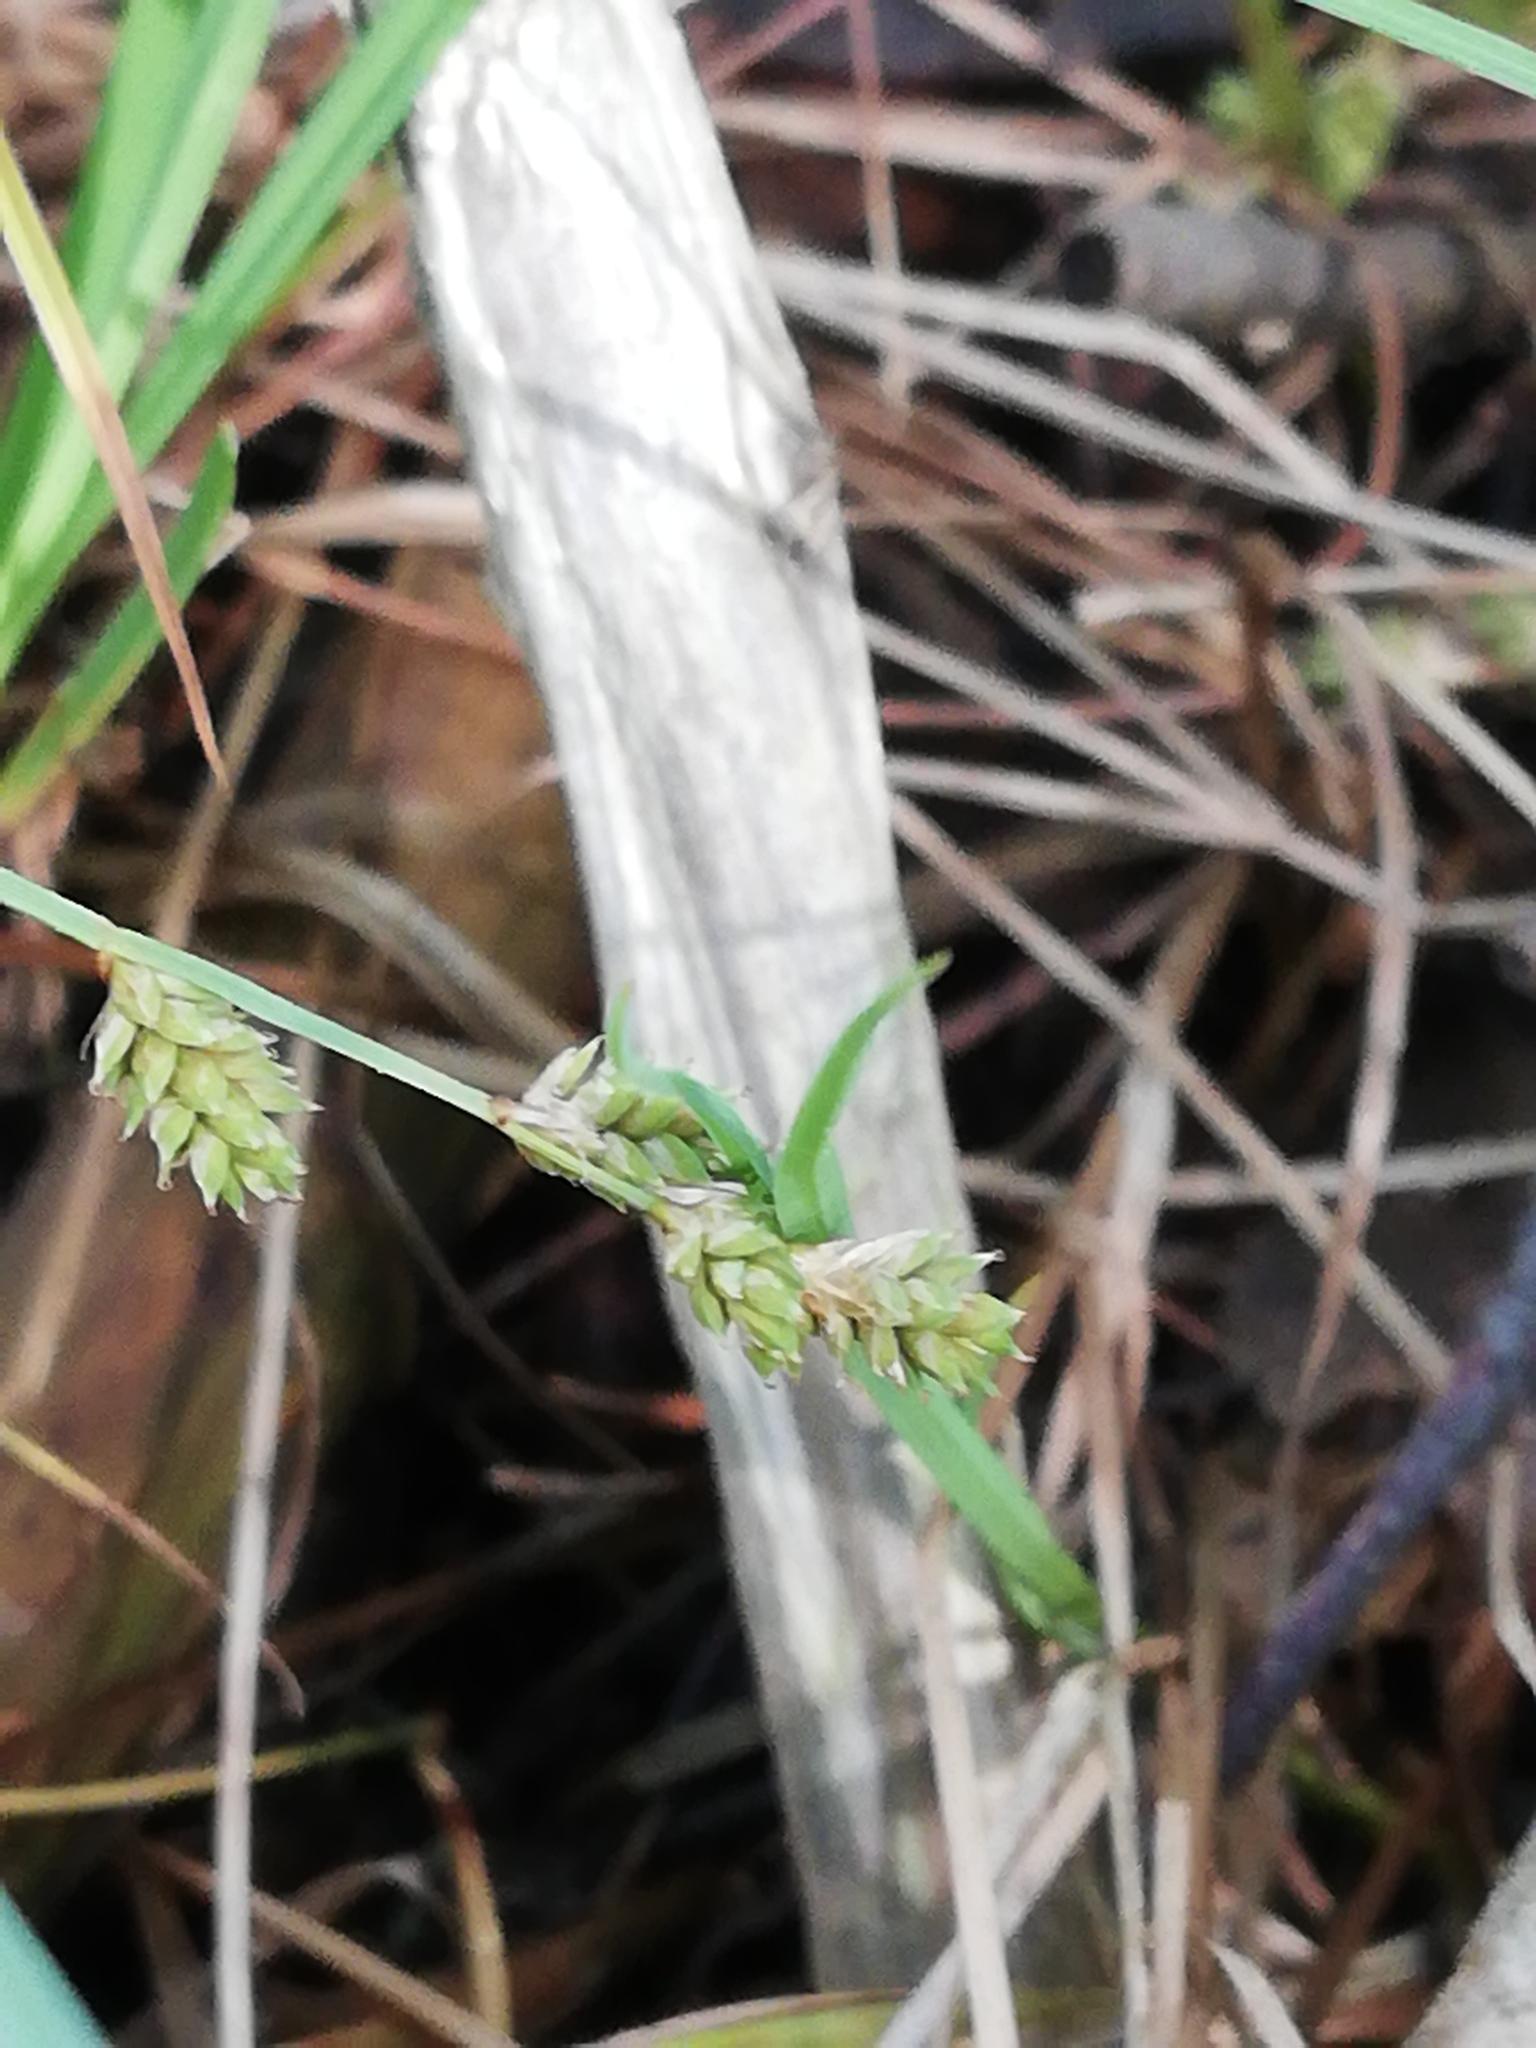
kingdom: Plantae
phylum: Tracheophyta
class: Liliopsida
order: Poales
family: Cyperaceae
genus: Carex
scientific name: Carex canescens
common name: White sedge
